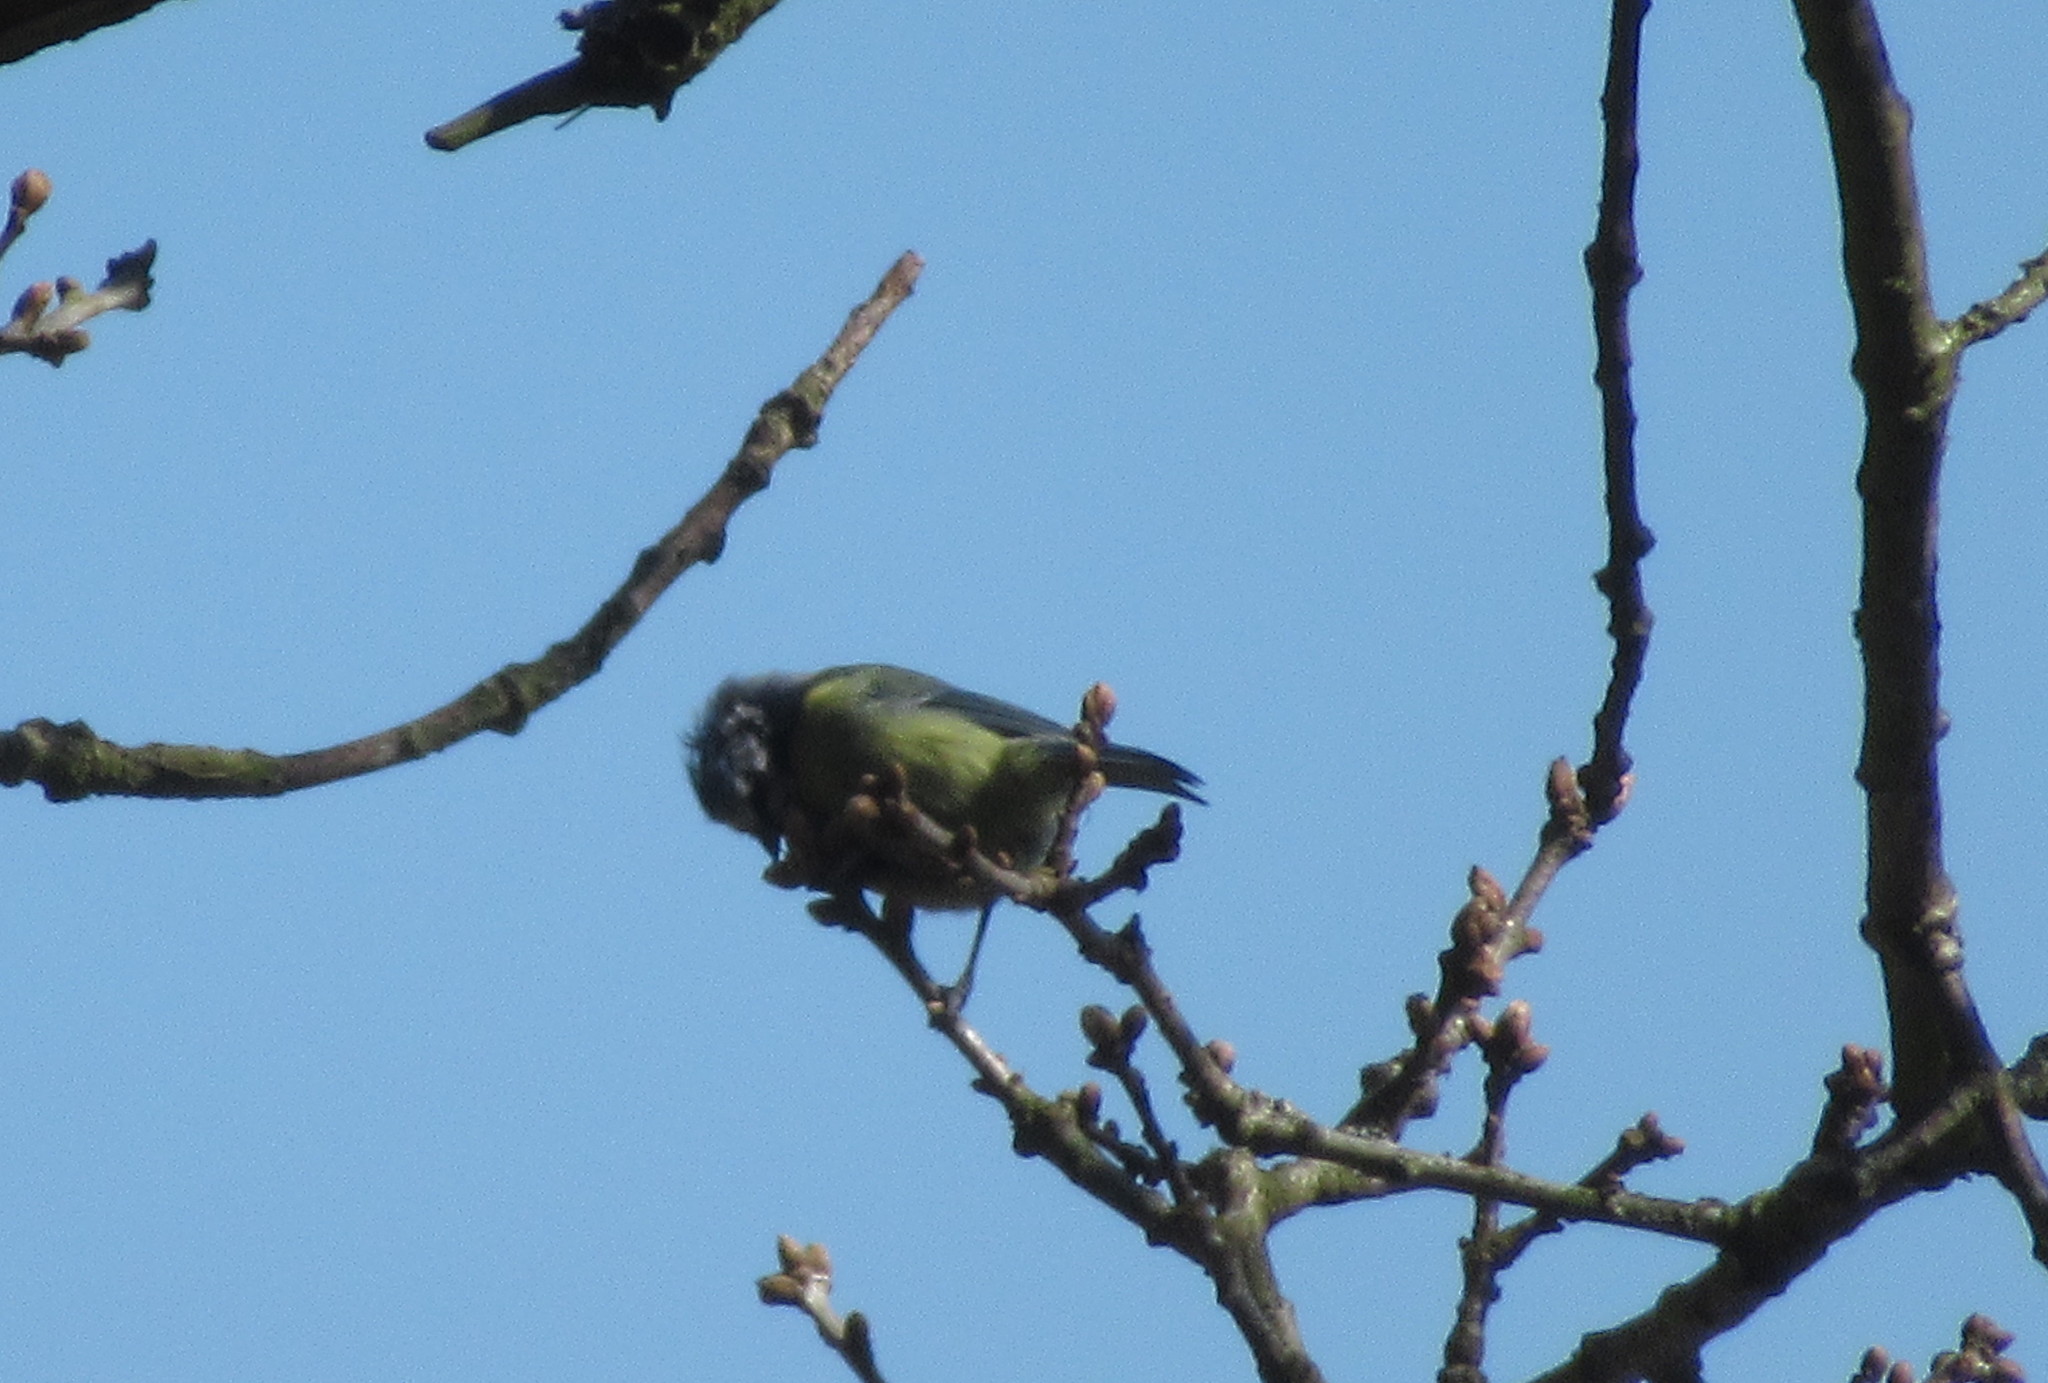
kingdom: Animalia
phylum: Chordata
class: Aves
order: Passeriformes
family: Paridae
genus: Cyanistes
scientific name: Cyanistes caeruleus
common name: Eurasian blue tit
